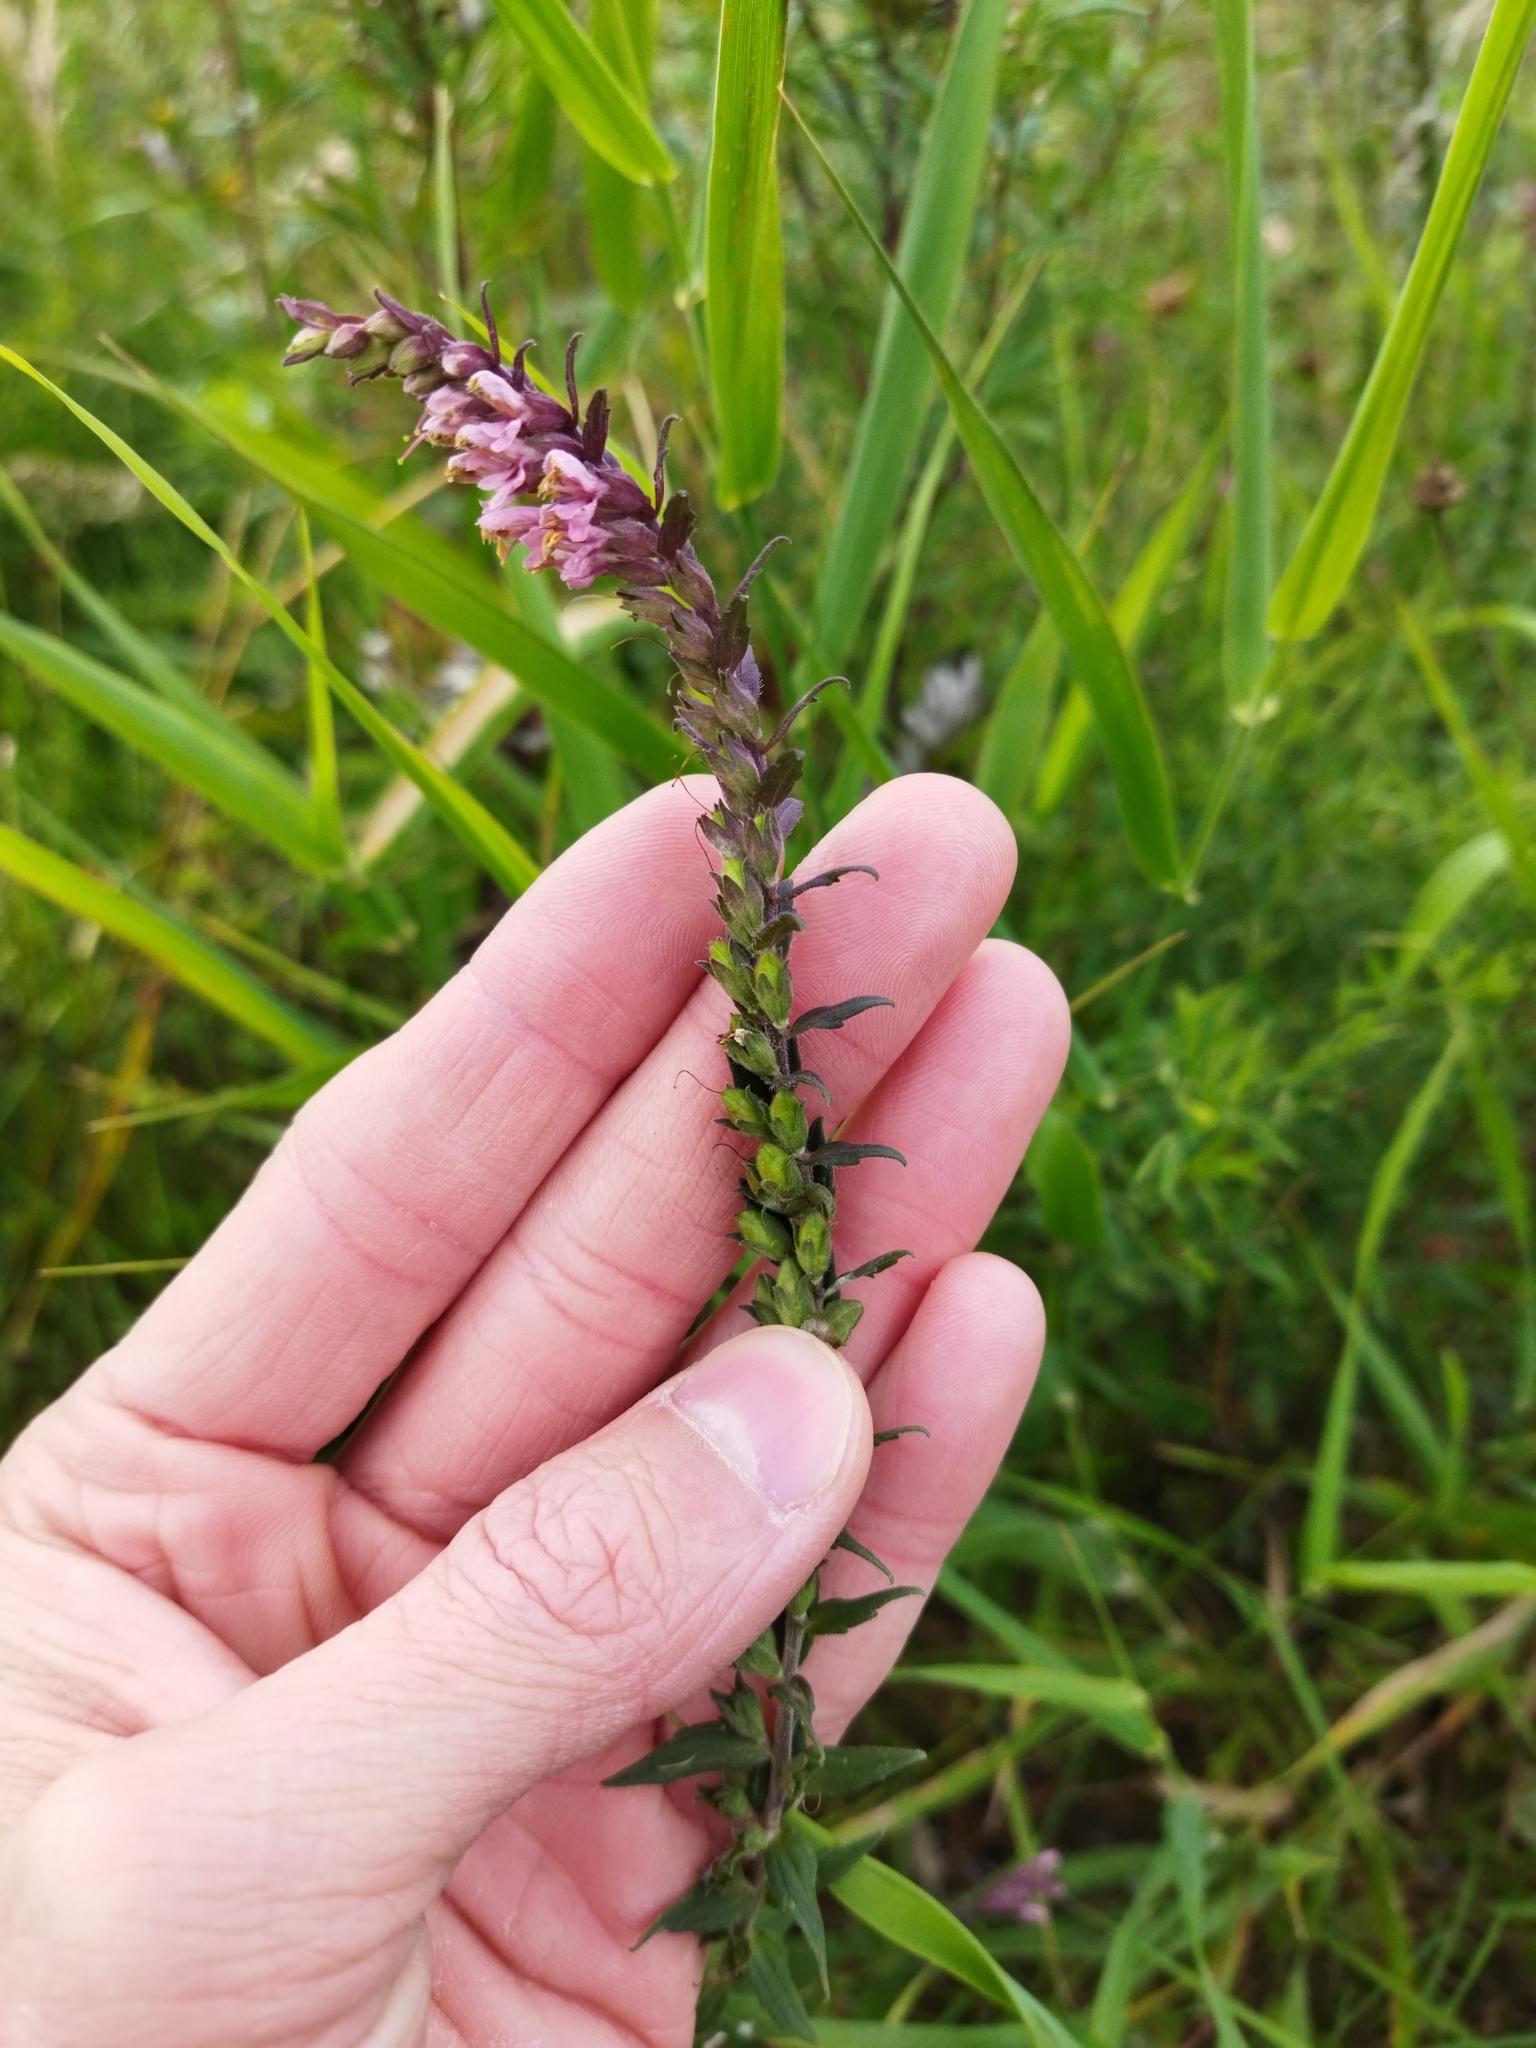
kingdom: Plantae
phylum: Tracheophyta
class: Magnoliopsida
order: Lamiales
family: Orobanchaceae
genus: Odontites
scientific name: Odontites vulgaris
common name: Broomrape
